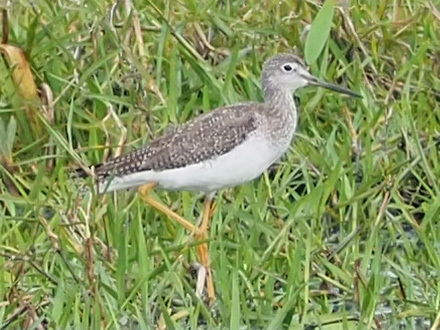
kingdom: Animalia
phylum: Chordata
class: Aves
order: Charadriiformes
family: Scolopacidae
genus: Tringa
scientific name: Tringa melanoleuca
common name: Greater yellowlegs
